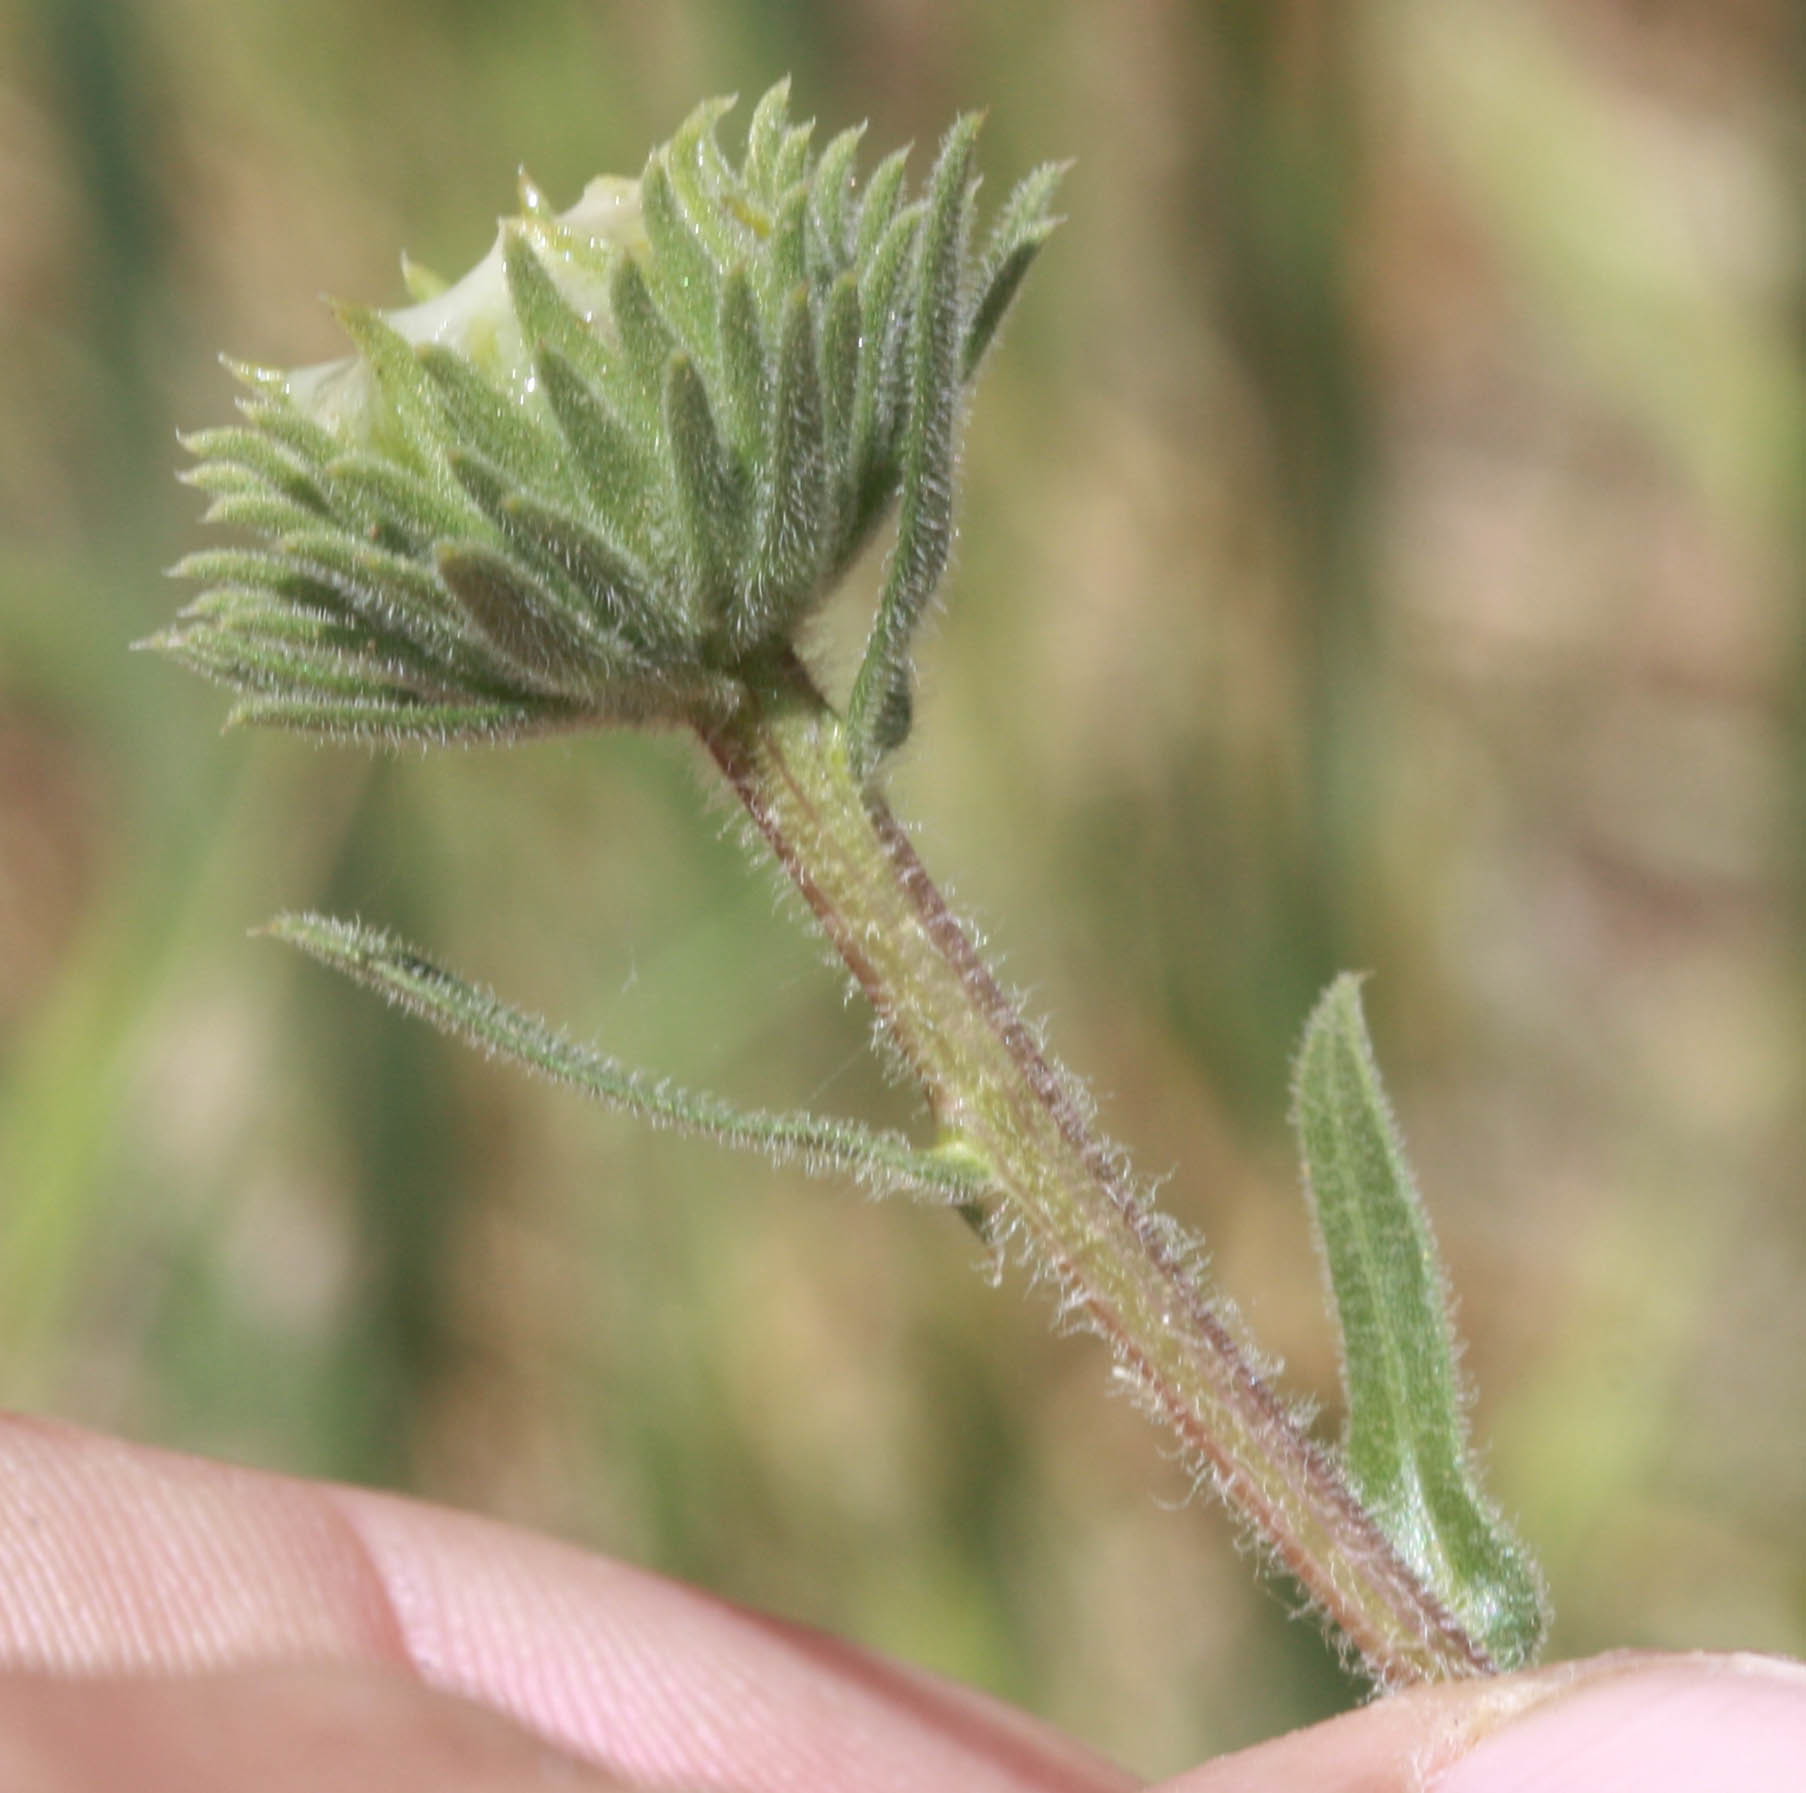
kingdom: Plantae
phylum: Tracheophyta
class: Magnoliopsida
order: Asterales
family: Asteraceae
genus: Grindelia
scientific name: Grindelia hirsutula
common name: Hairy gumweed
